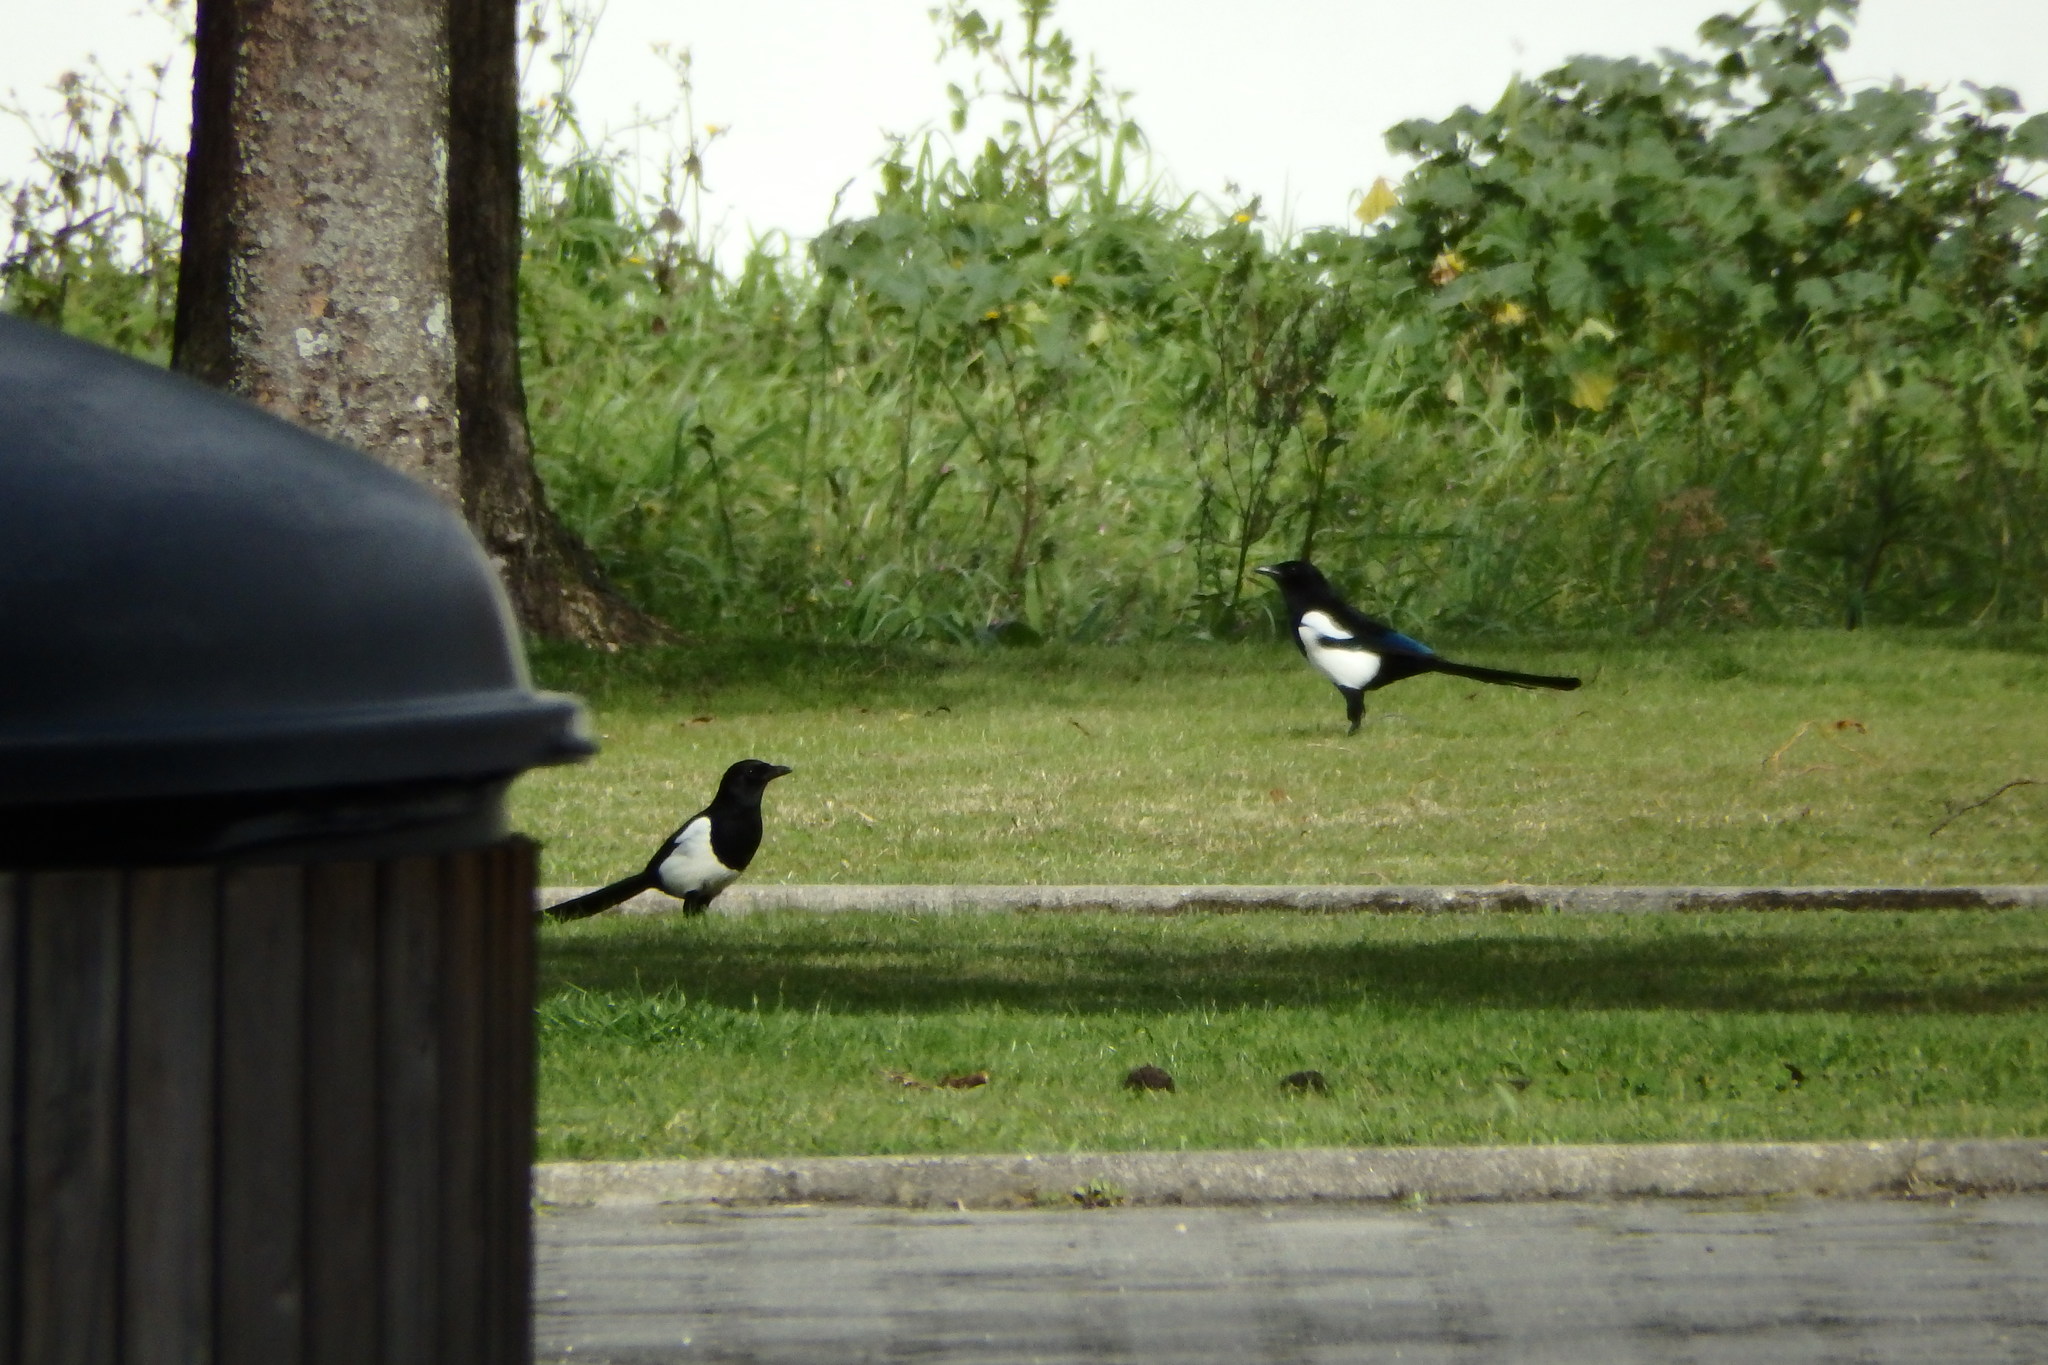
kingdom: Animalia
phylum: Chordata
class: Aves
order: Passeriformes
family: Corvidae
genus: Pica
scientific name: Pica pica
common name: Eurasian magpie
